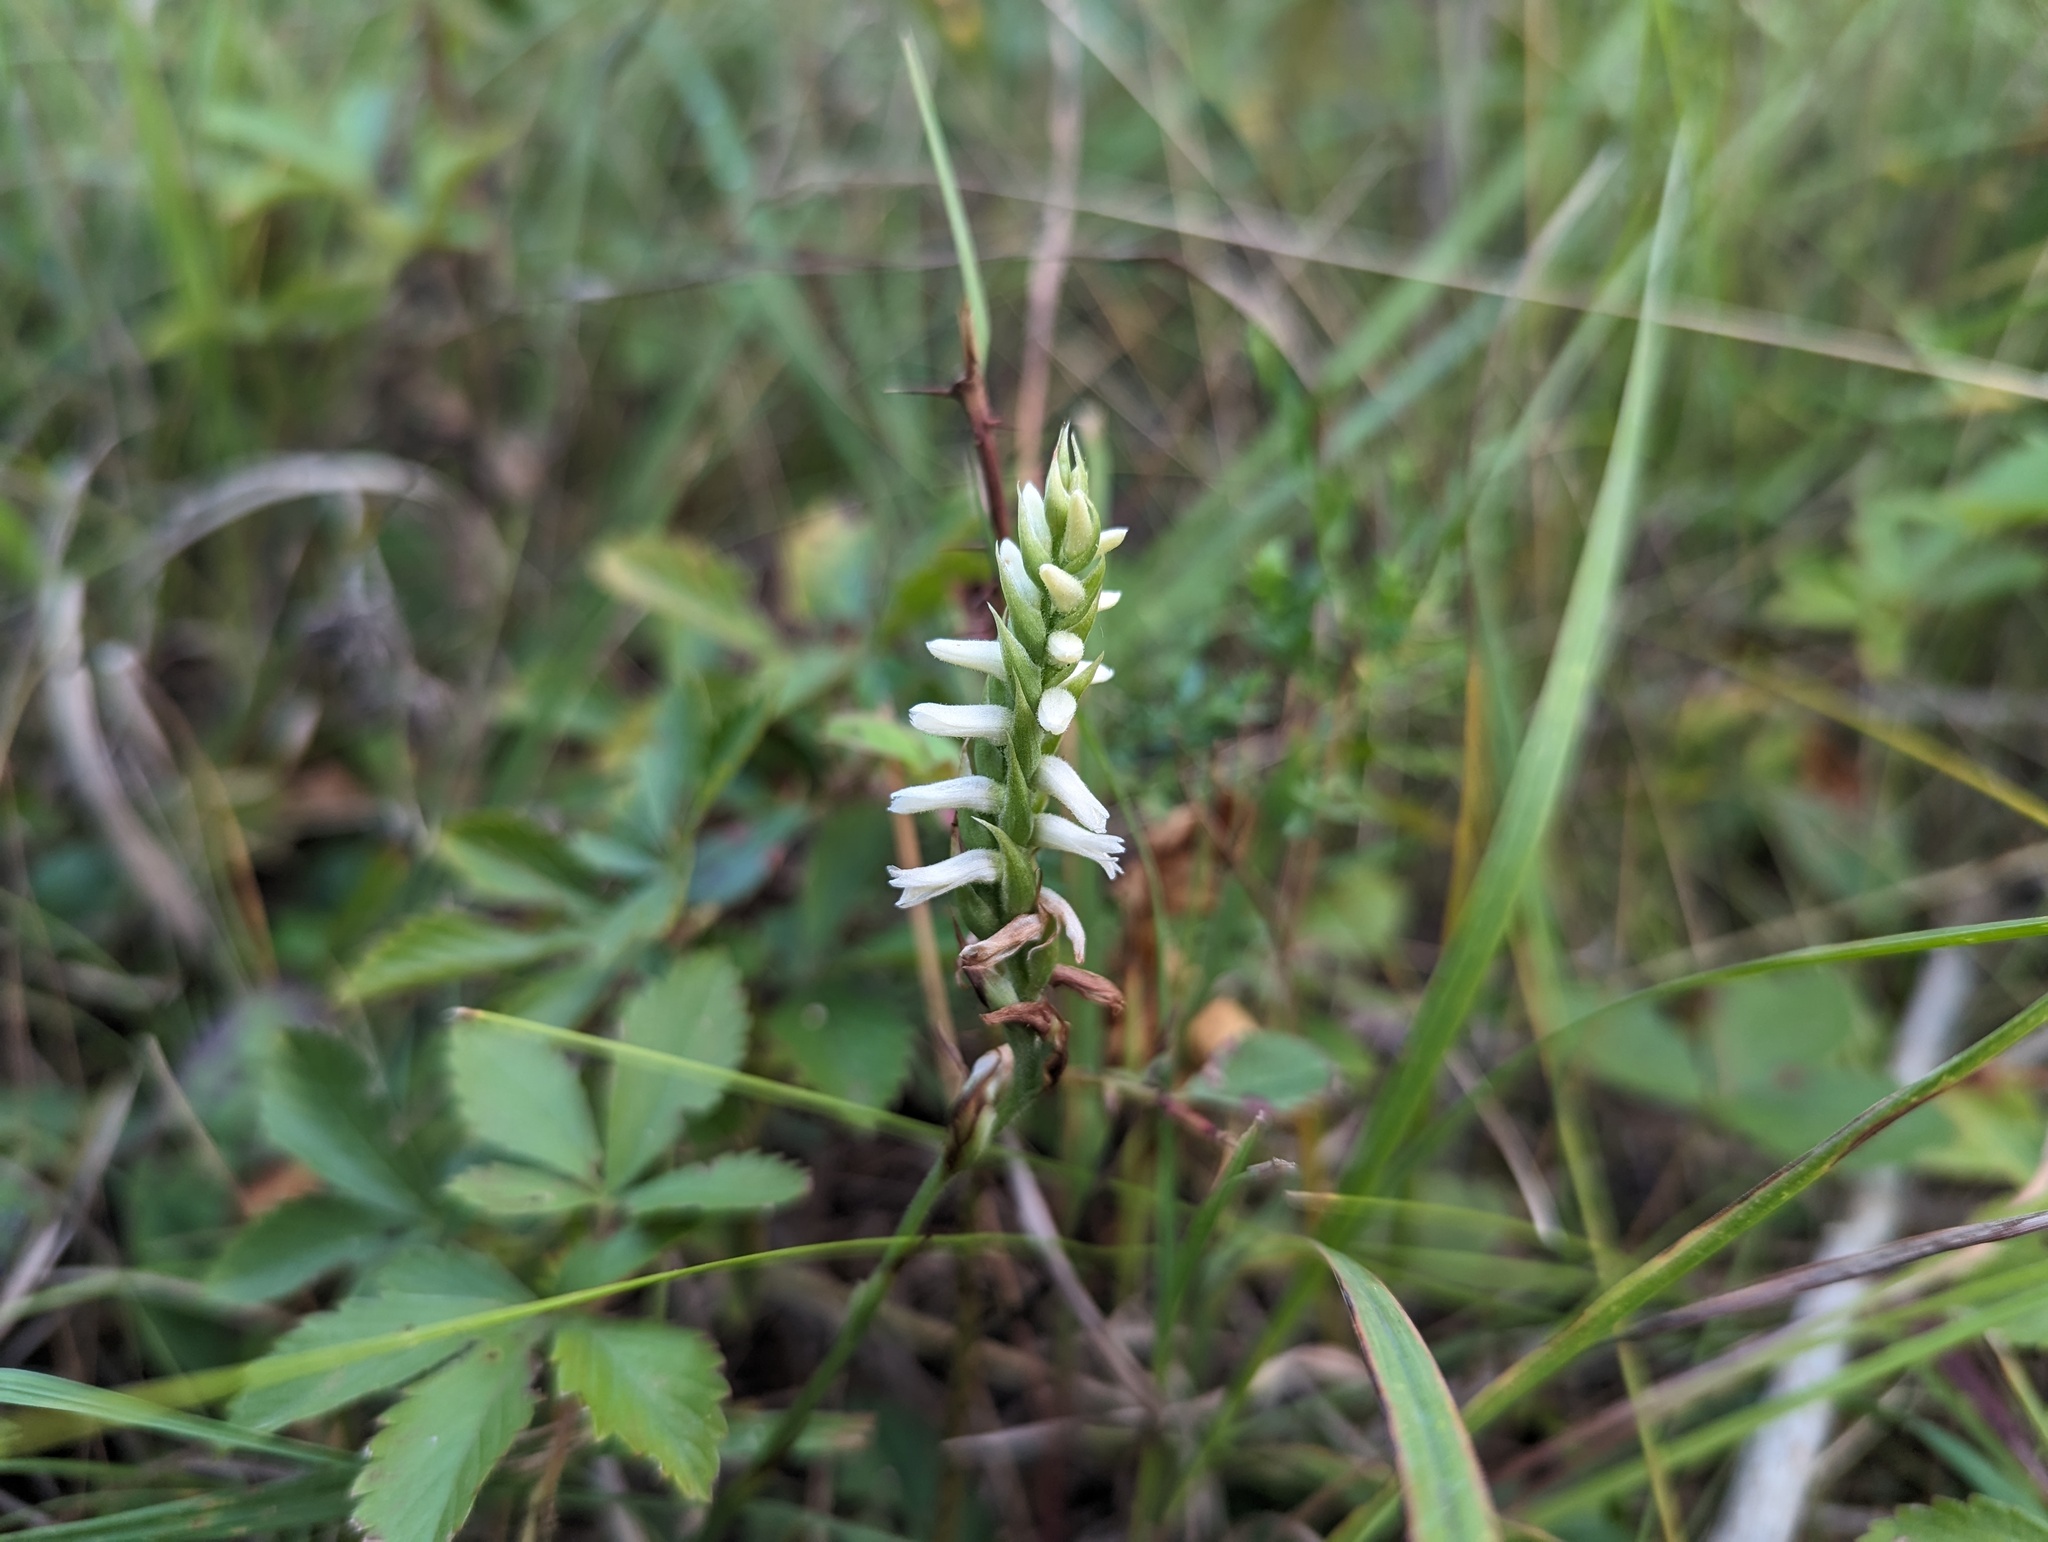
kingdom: Plantae
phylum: Tracheophyta
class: Liliopsida
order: Asparagales
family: Orchidaceae
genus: Spiranthes
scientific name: Spiranthes magnicamporum
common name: Great plains ladies'-tresses
